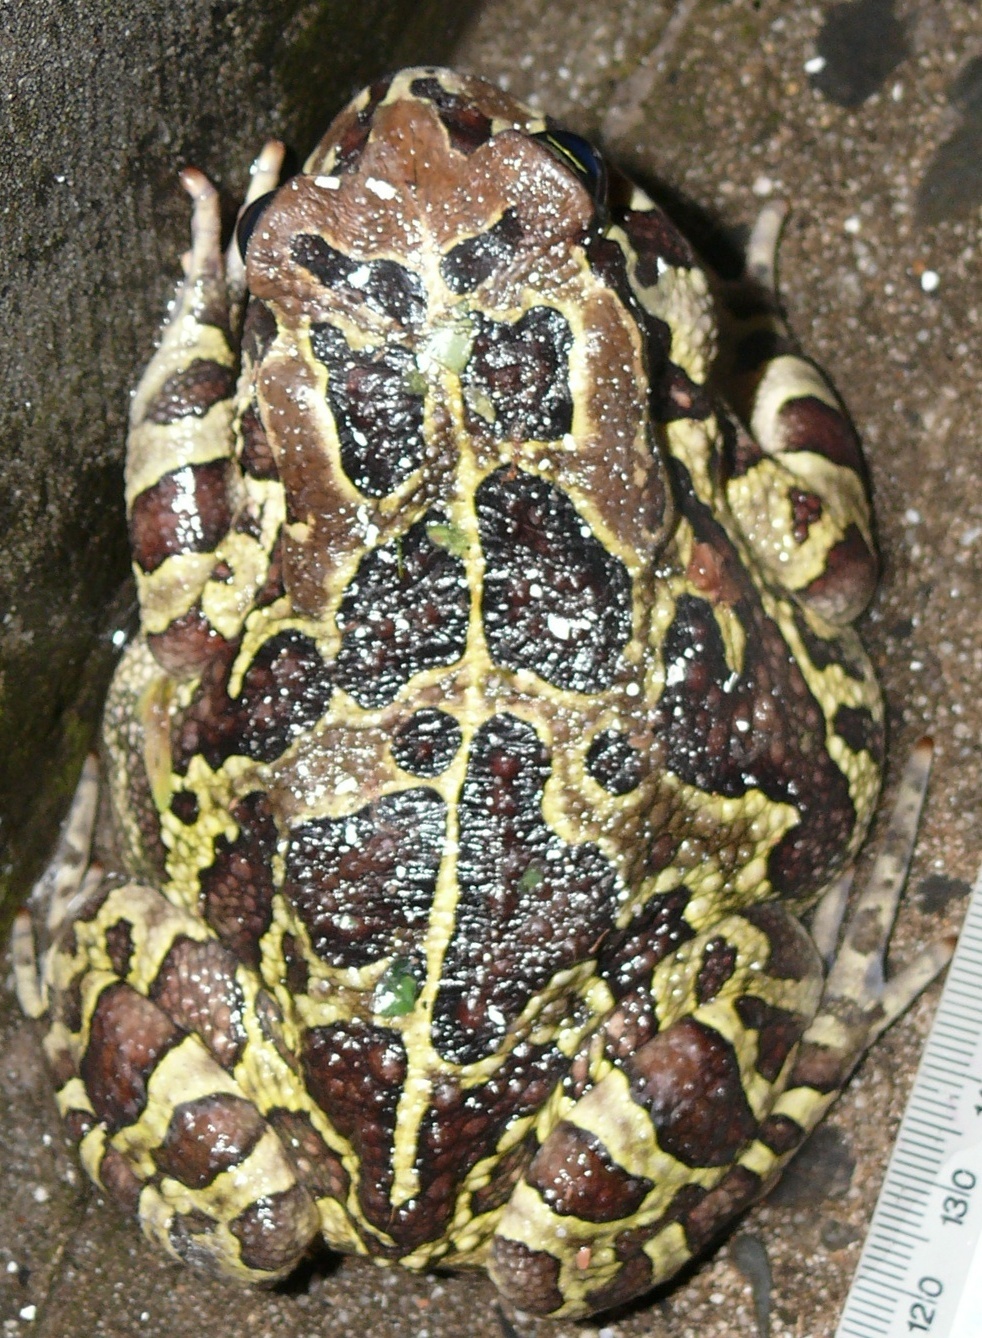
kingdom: Animalia
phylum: Chordata
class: Amphibia
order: Anura
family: Bufonidae
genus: Sclerophrys
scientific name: Sclerophrys pantherina
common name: Panther toad
